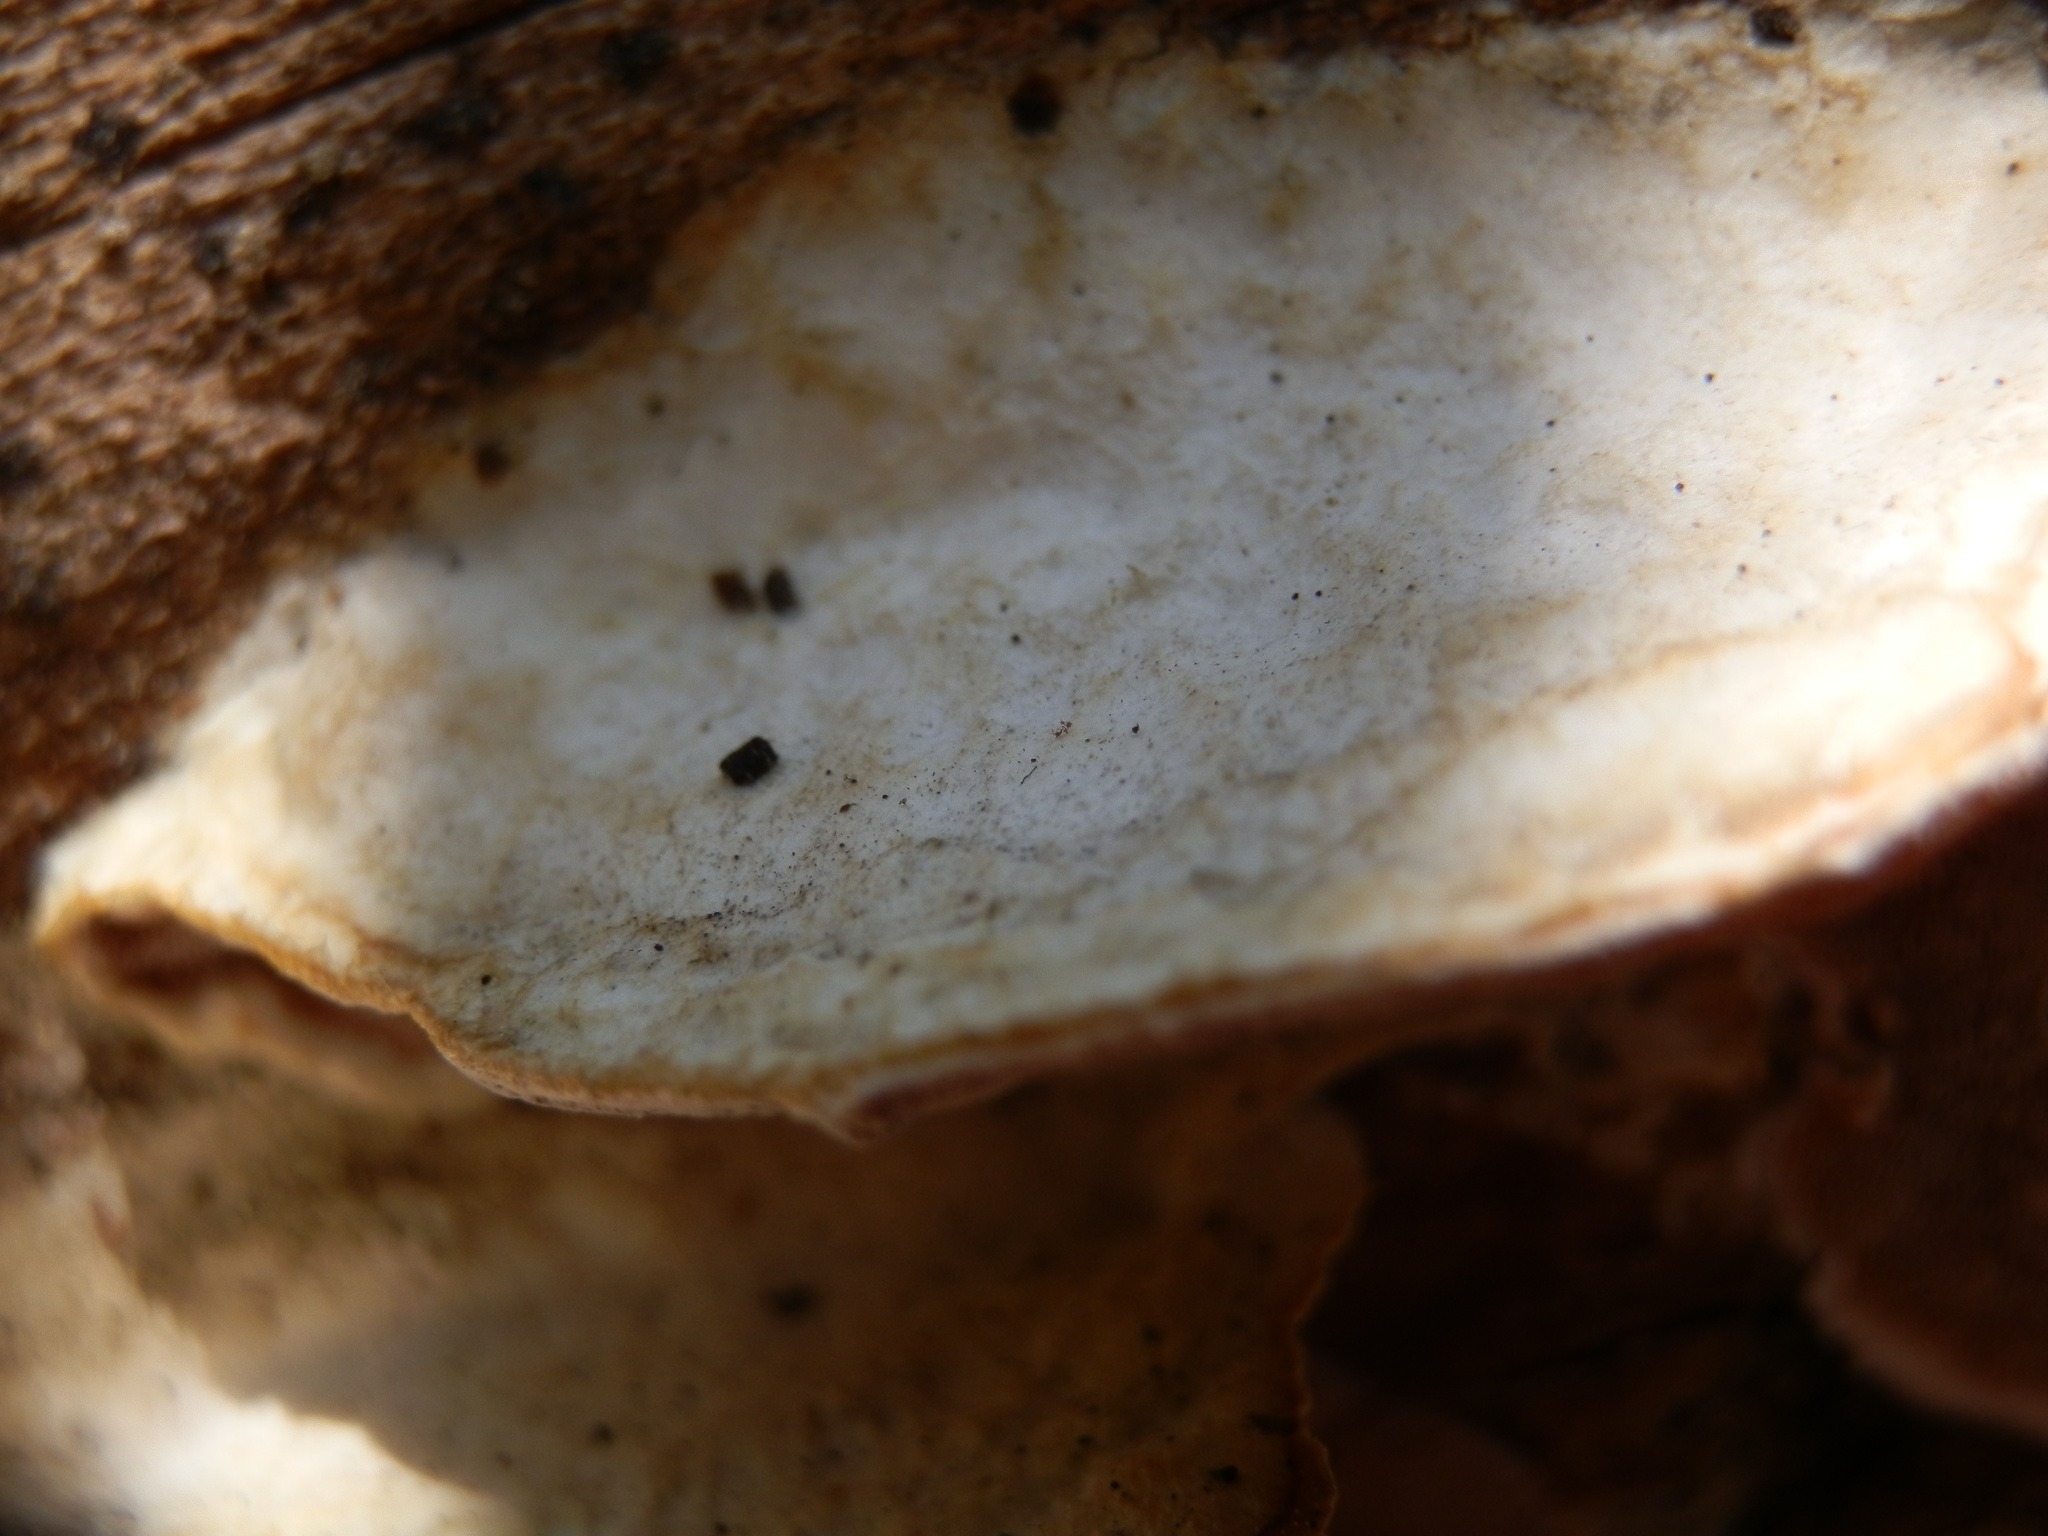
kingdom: Fungi
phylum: Basidiomycota
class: Agaricomycetes
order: Polyporales
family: Irpicaceae
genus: Vitreoporus
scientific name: Vitreoporus dichrous
